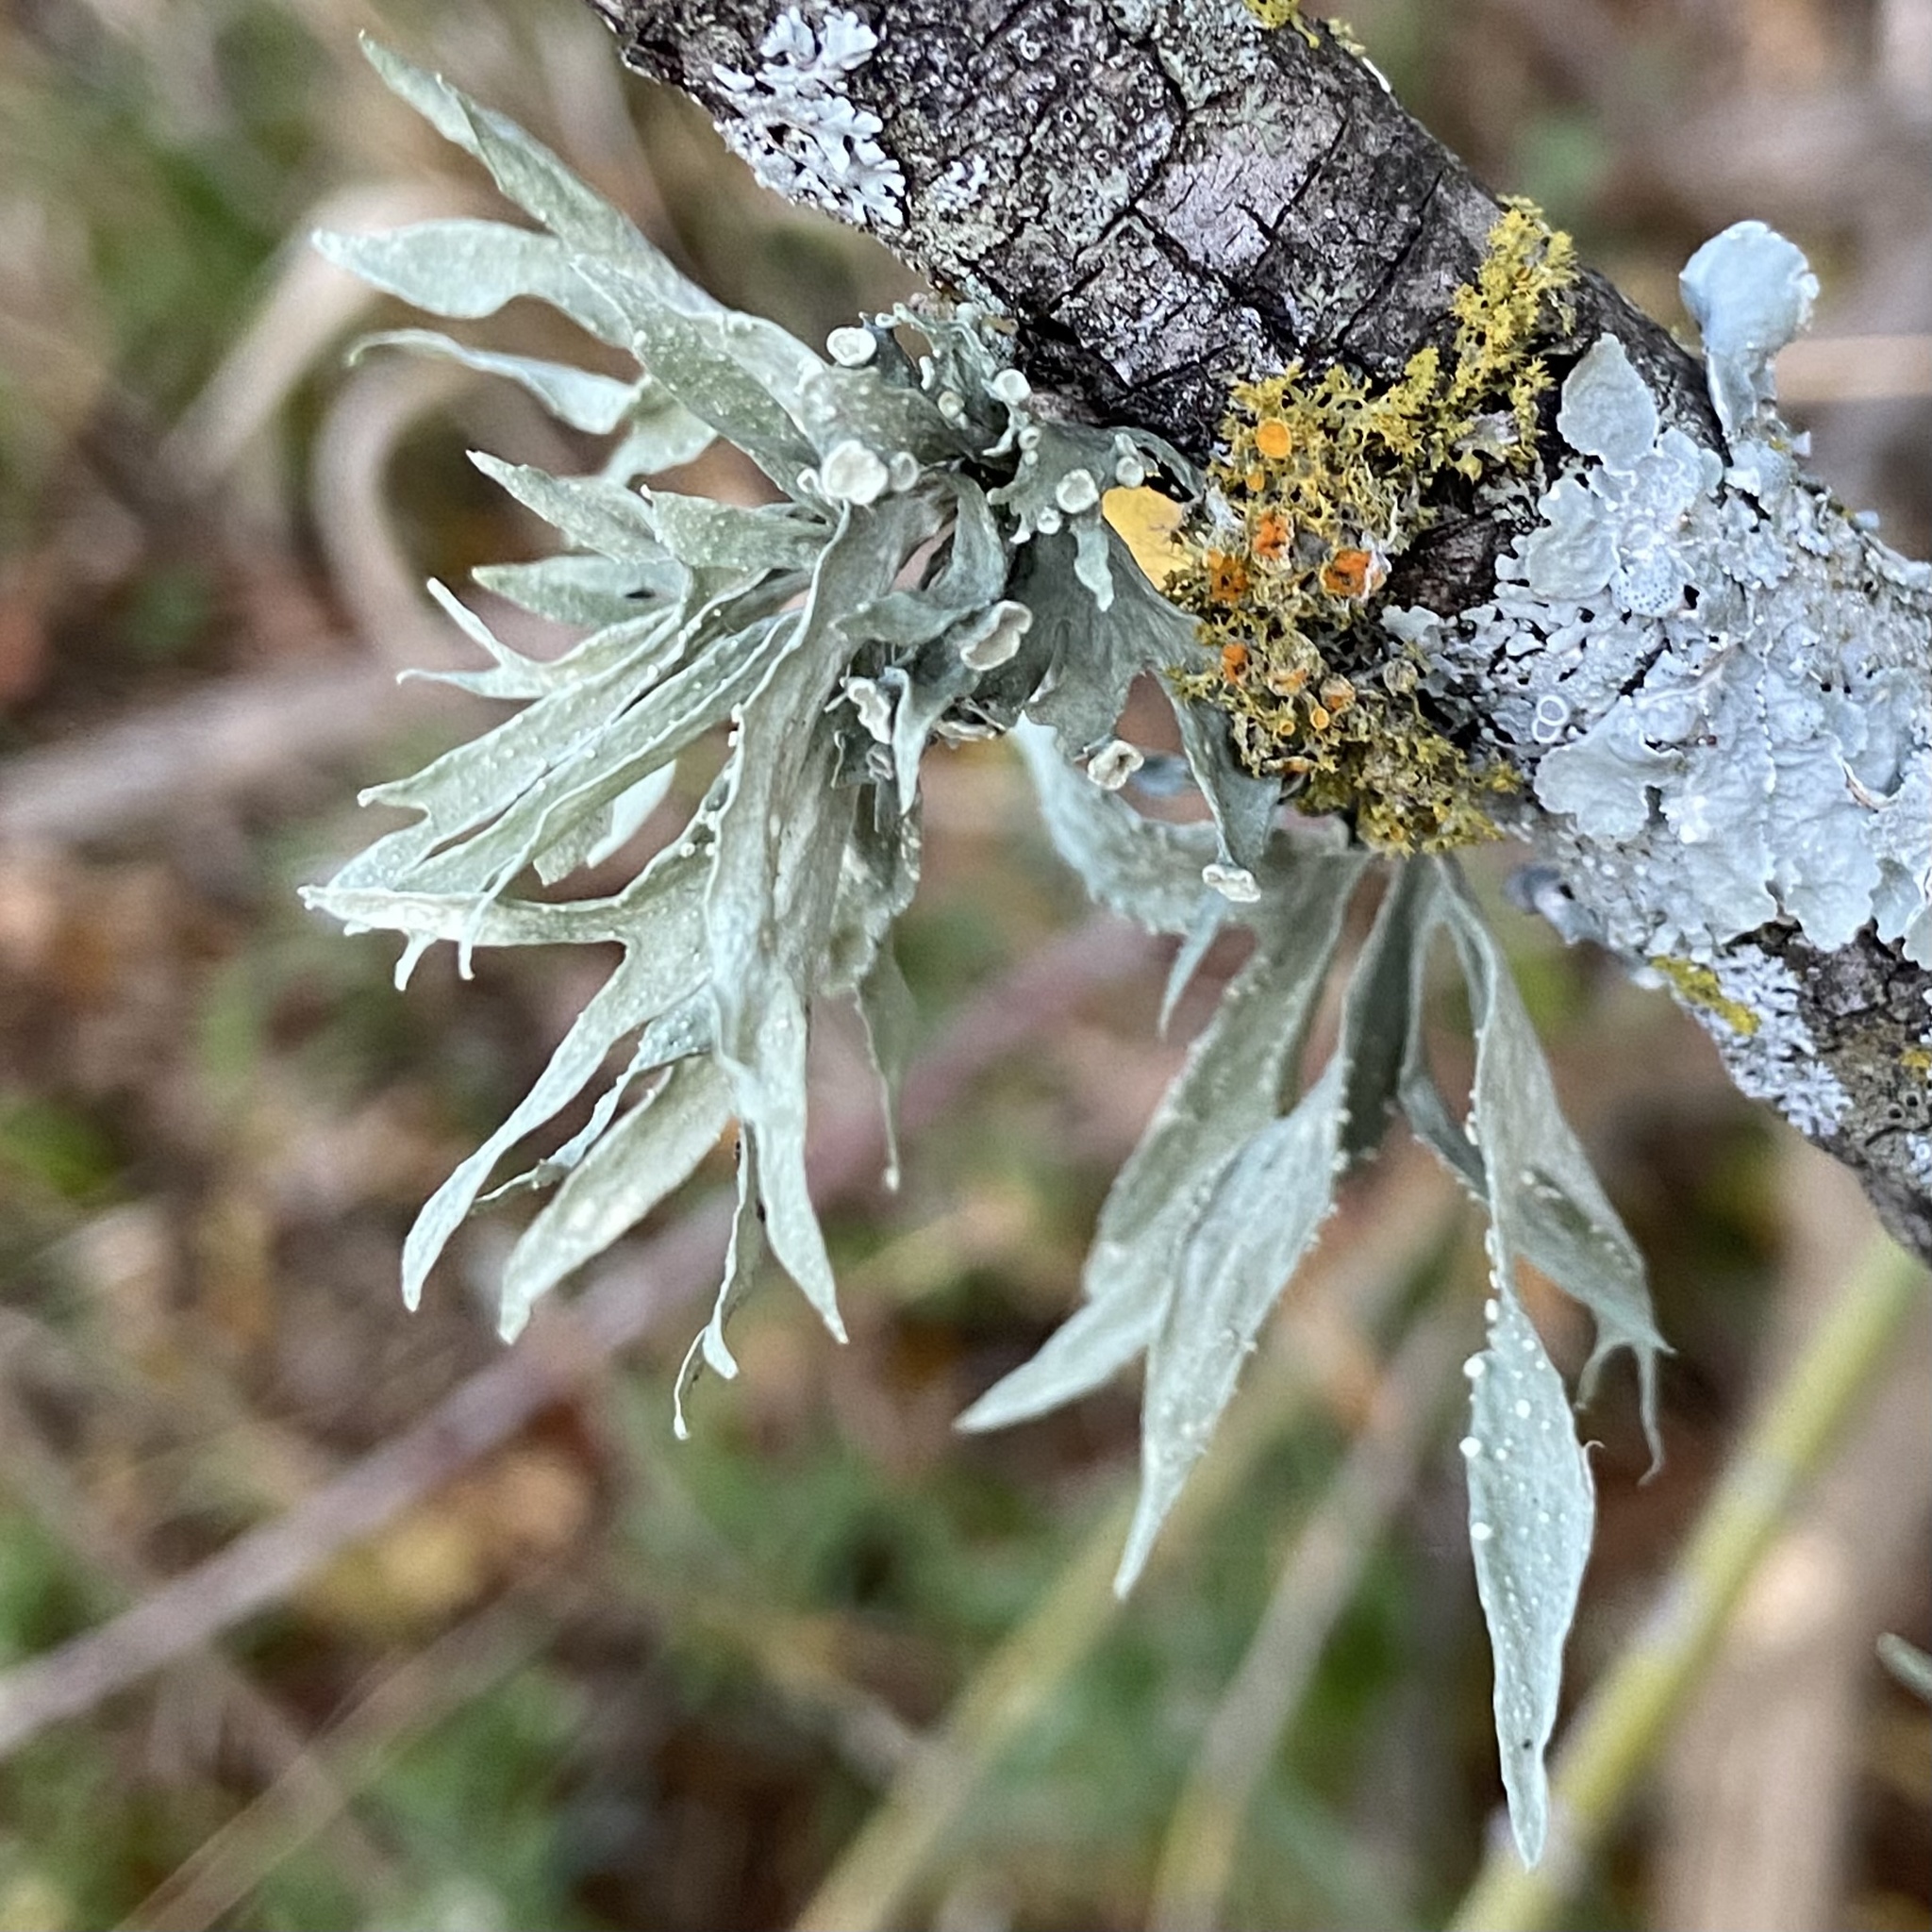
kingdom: Fungi
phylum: Ascomycota
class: Lecanoromycetes
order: Lecanorales
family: Ramalinaceae
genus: Ramalina
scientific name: Ramalina celastri
